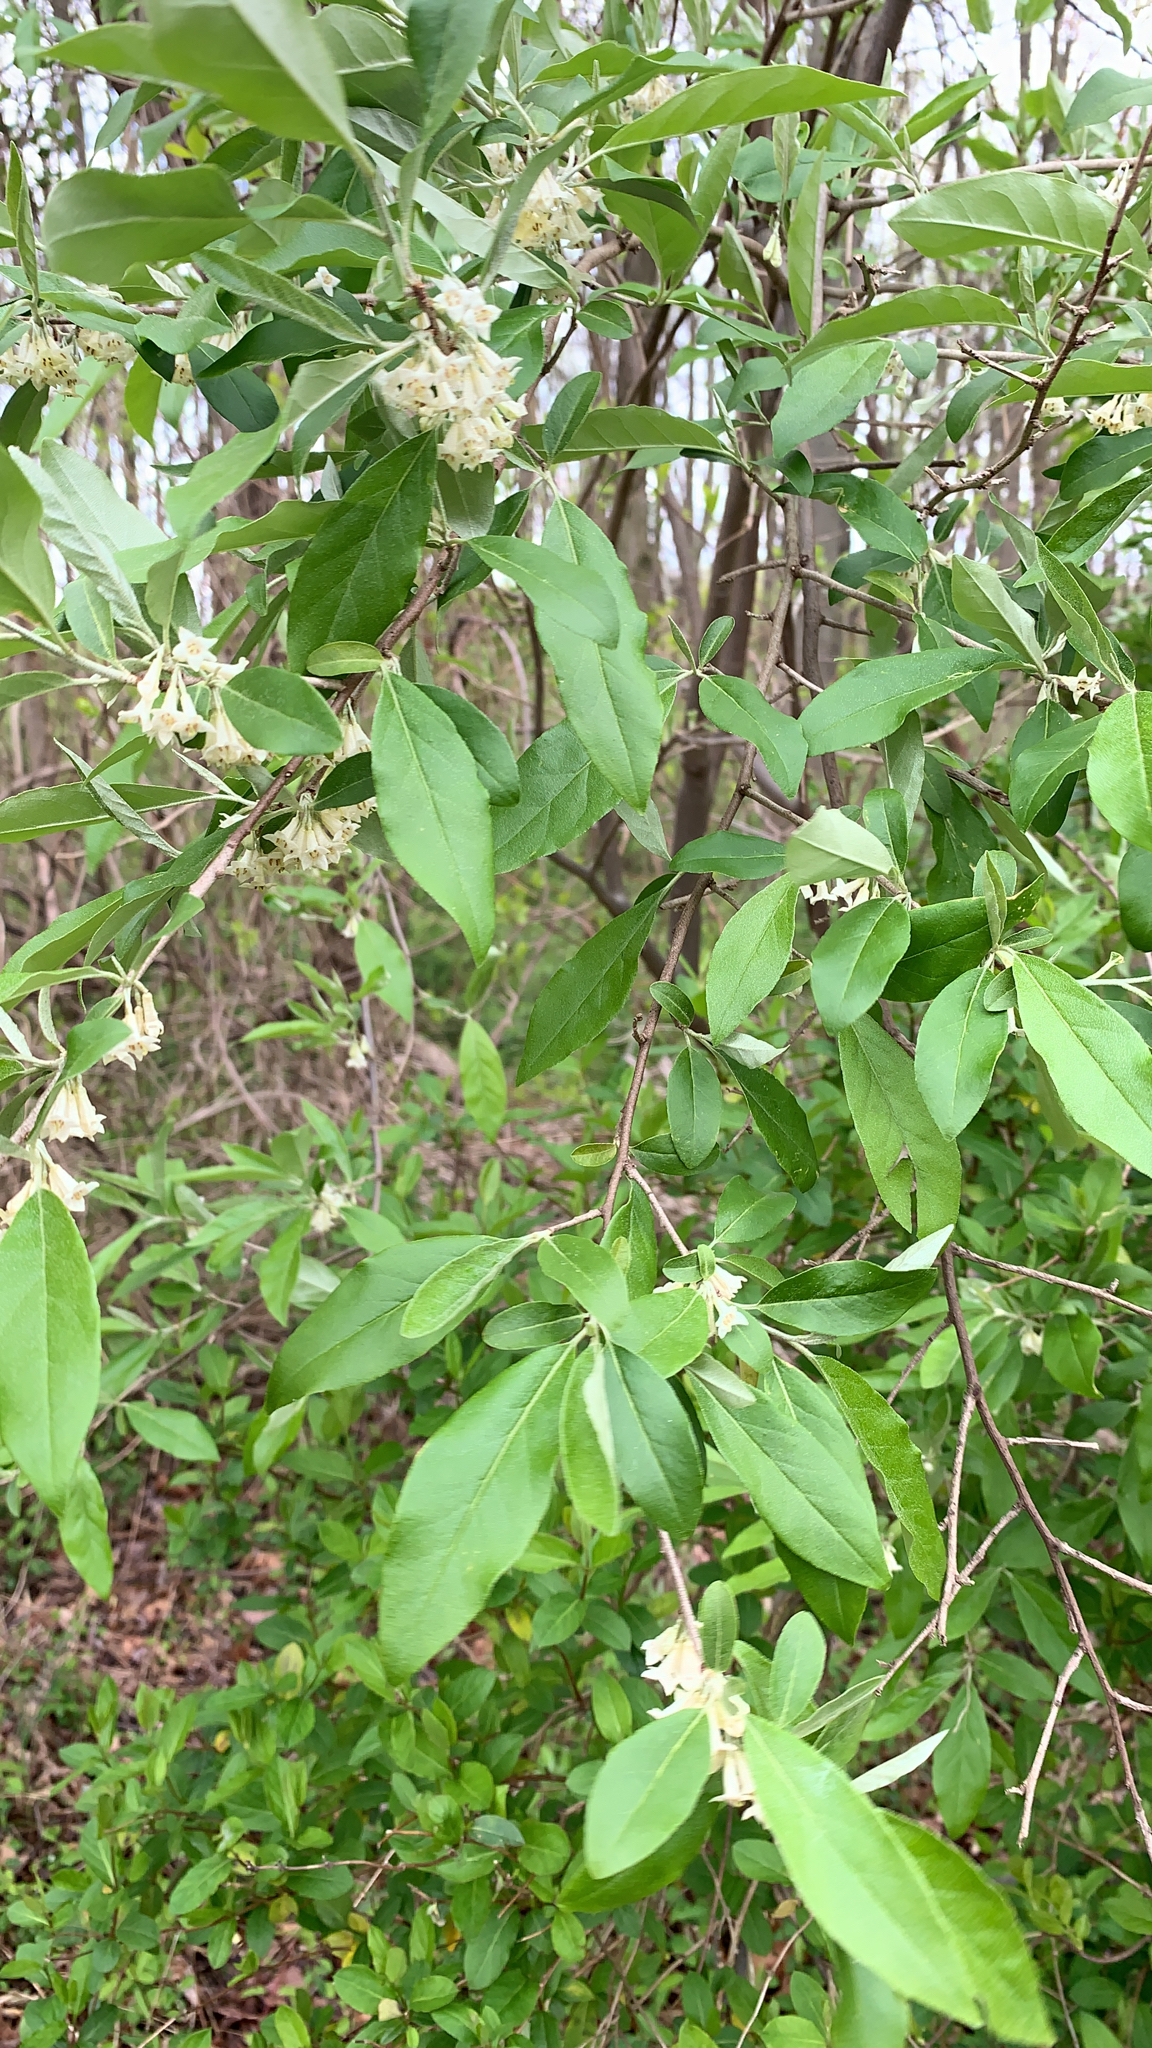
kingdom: Plantae
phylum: Tracheophyta
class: Magnoliopsida
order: Rosales
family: Elaeagnaceae
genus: Elaeagnus
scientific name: Elaeagnus umbellata
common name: Autumn olive
